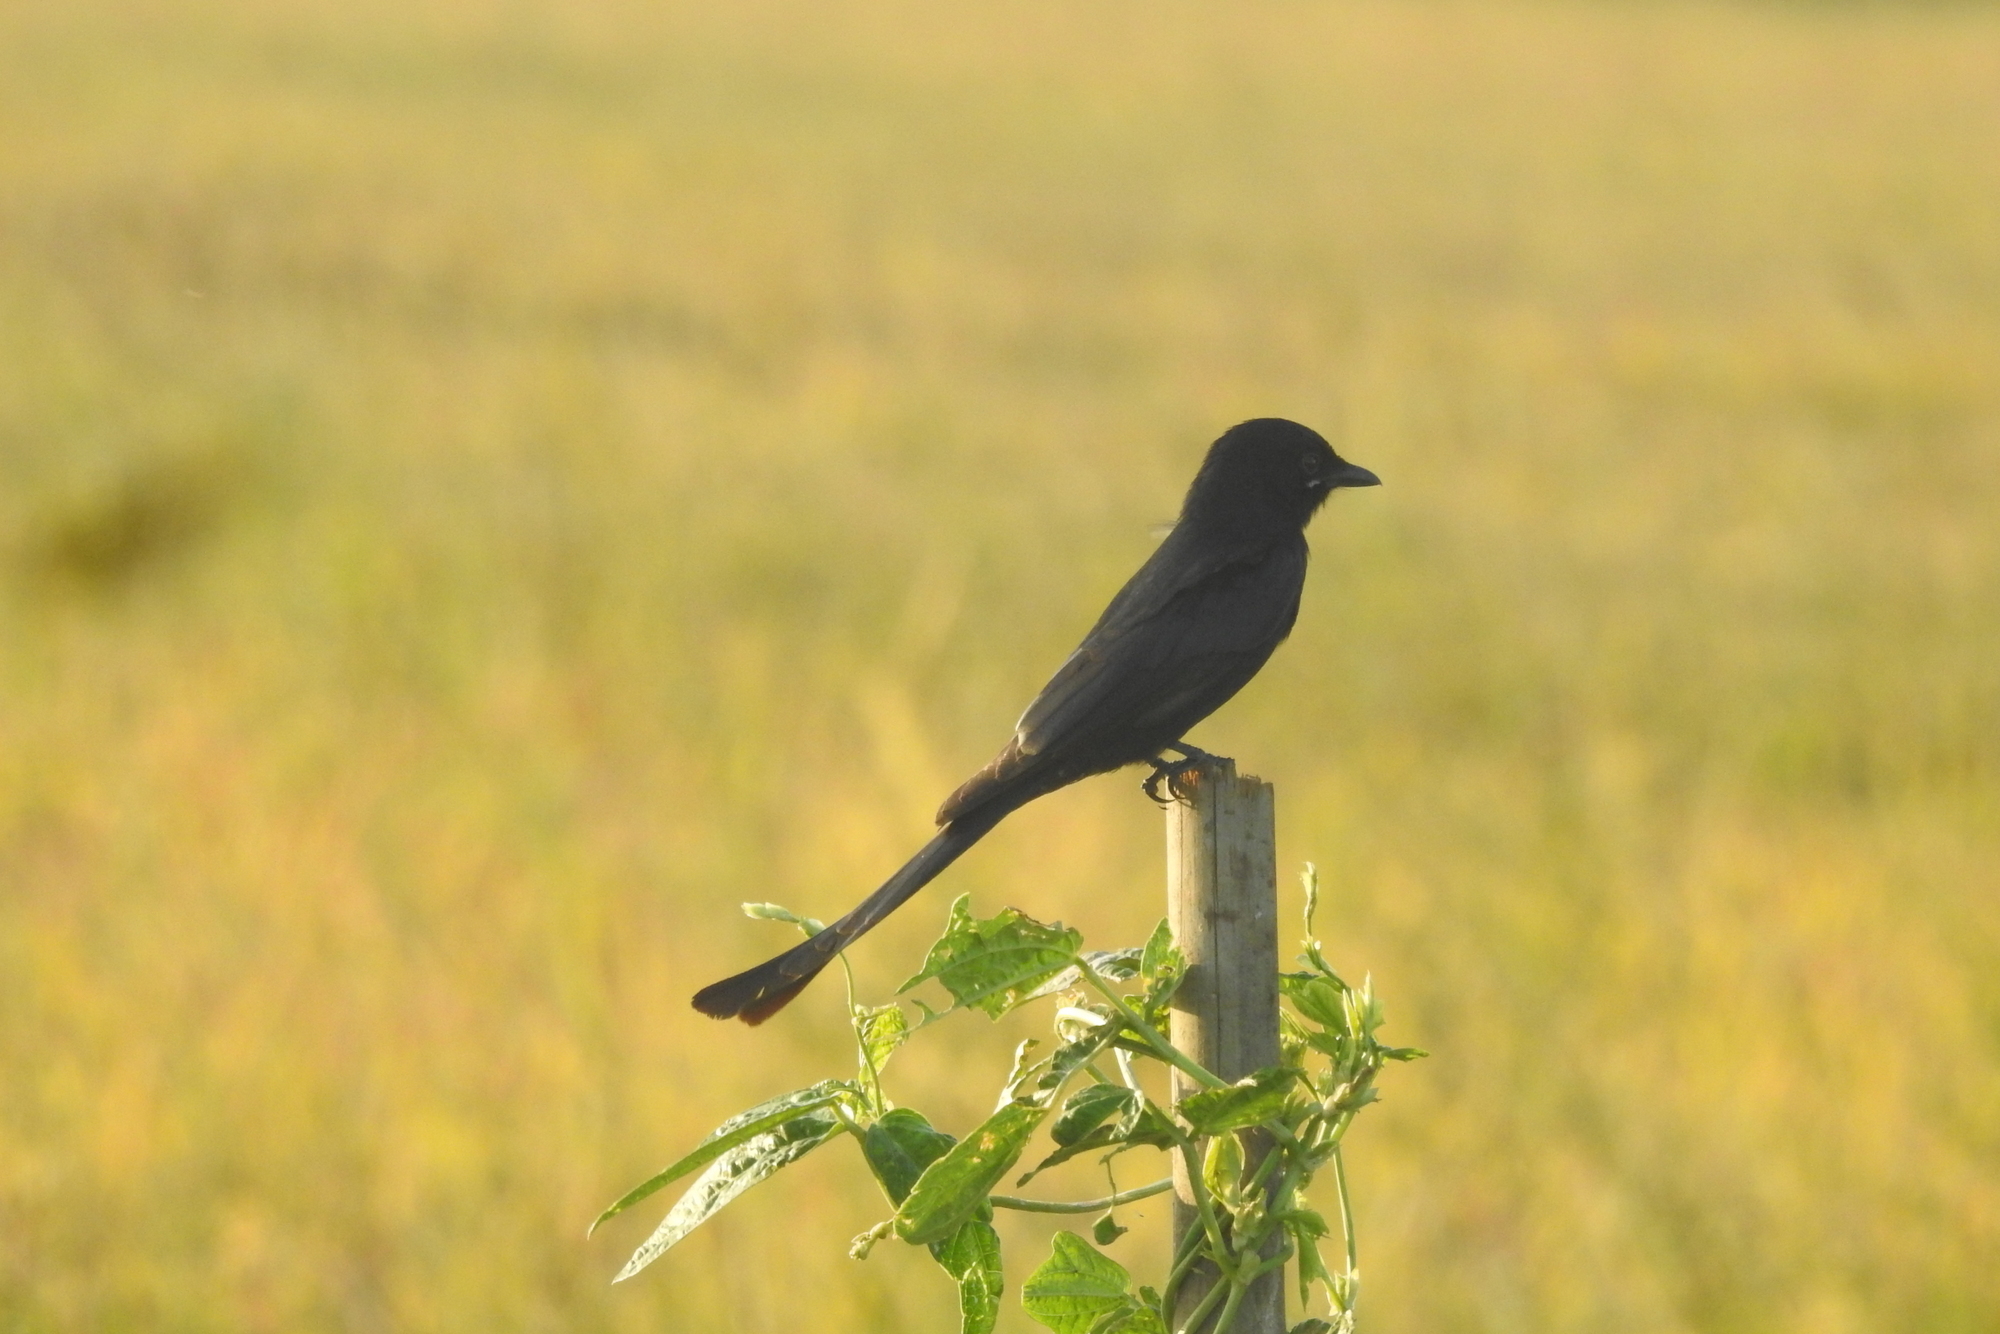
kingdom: Animalia
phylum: Chordata
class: Aves
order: Passeriformes
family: Dicruridae
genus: Dicrurus
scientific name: Dicrurus macrocercus
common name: Black drongo
